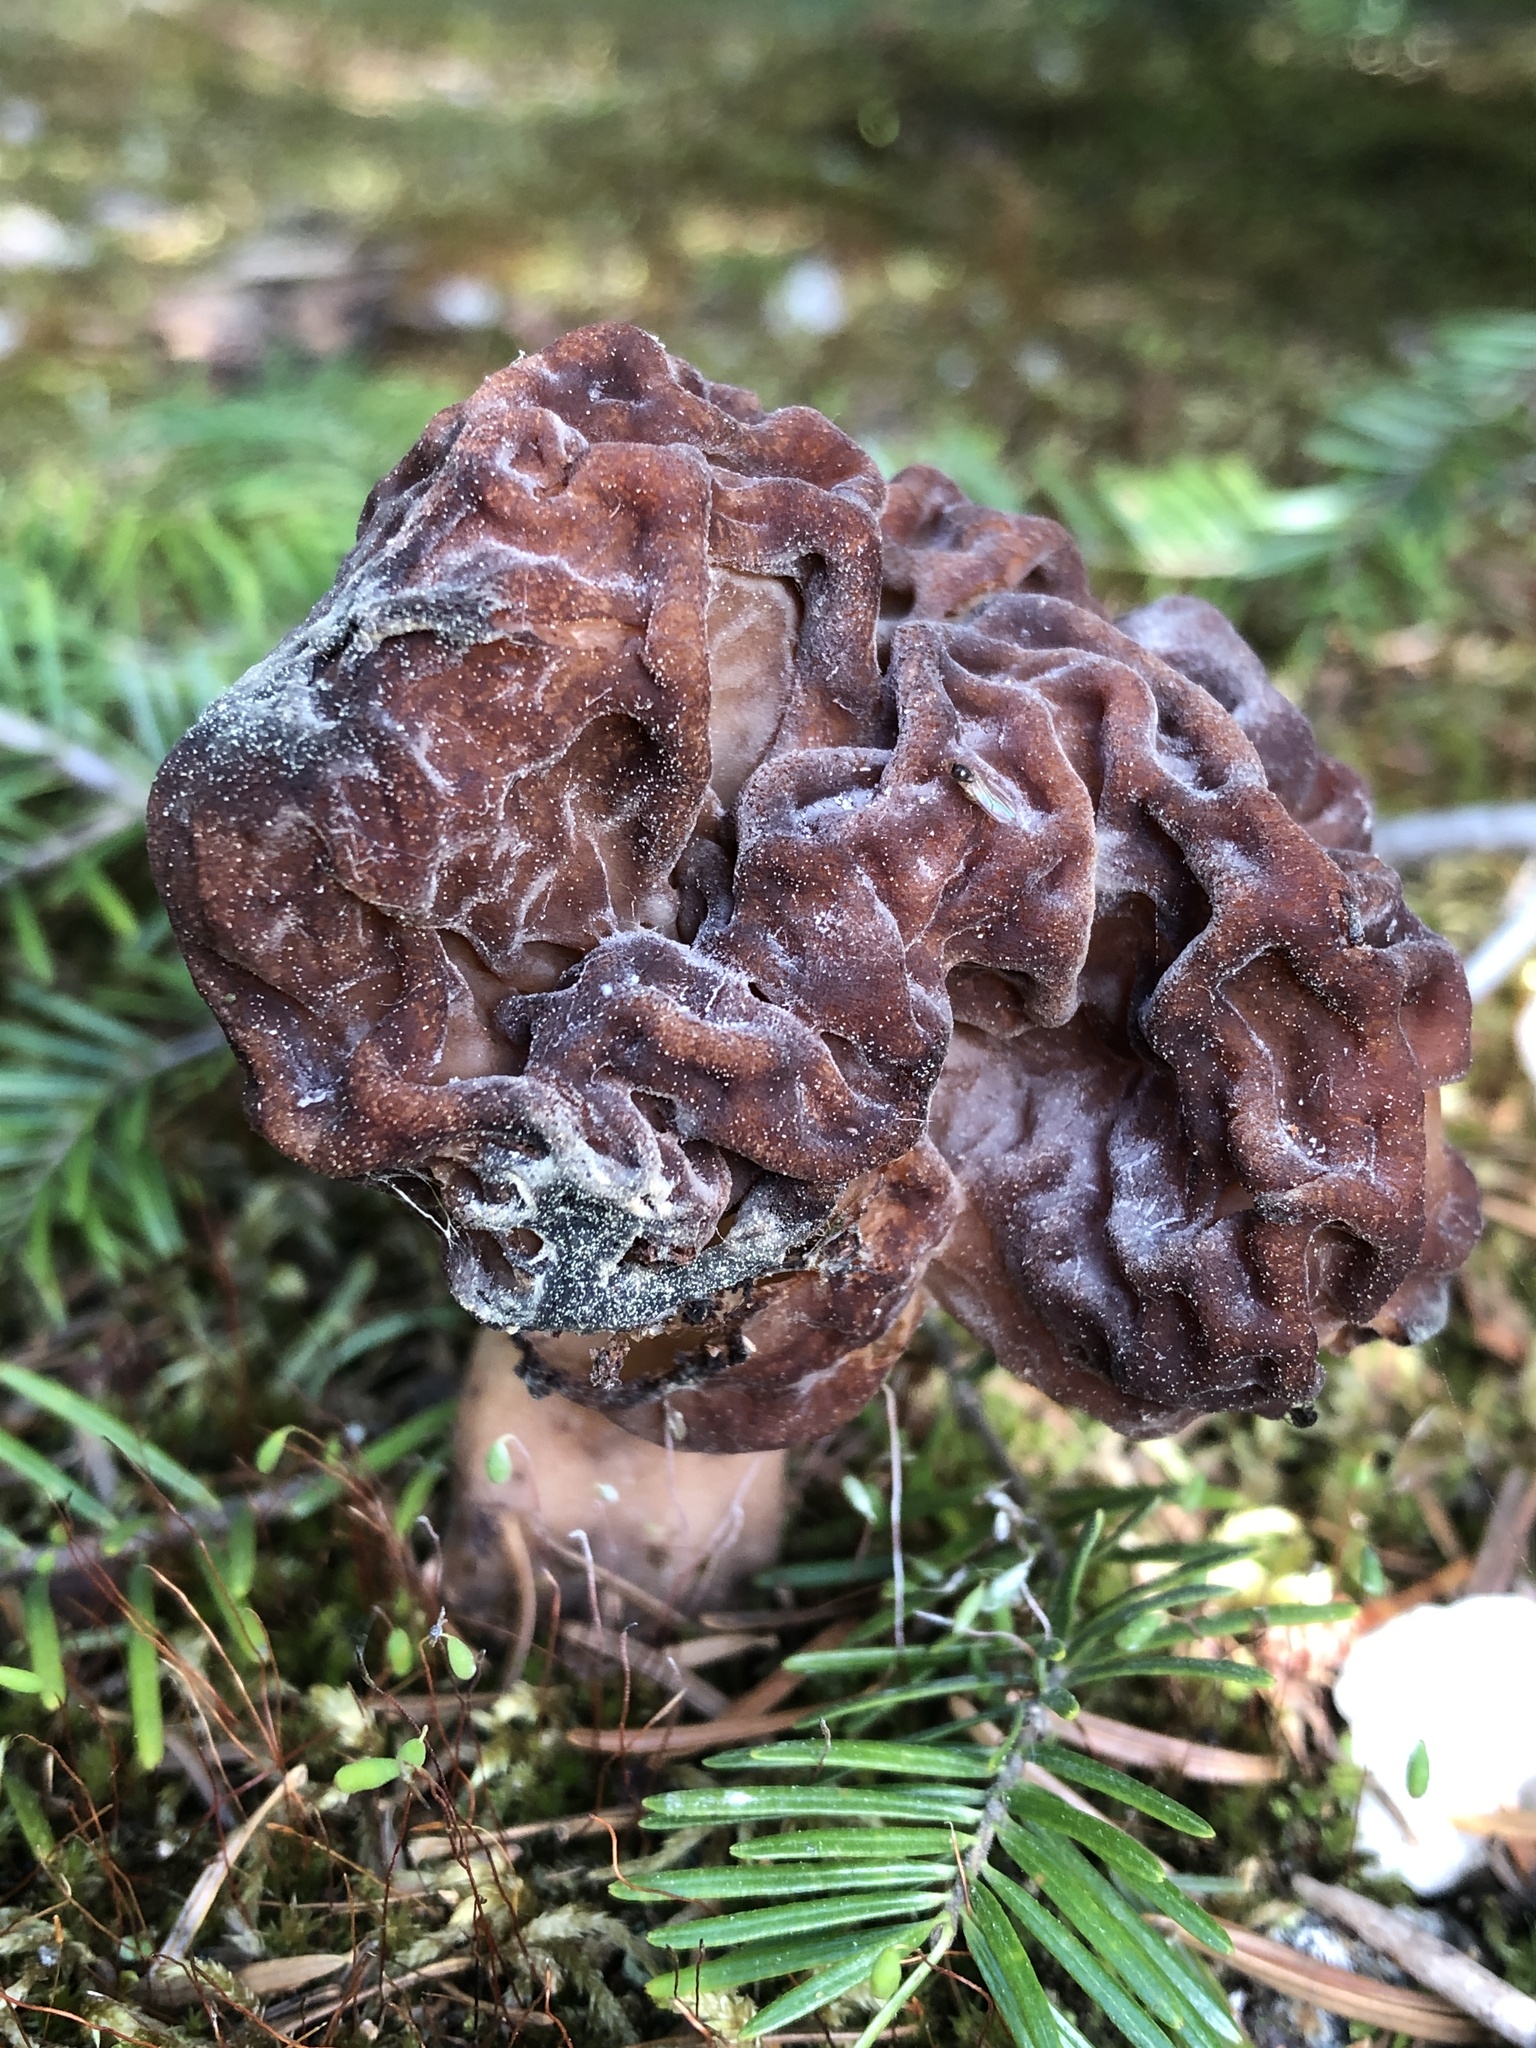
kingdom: Fungi
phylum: Ascomycota
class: Pezizomycetes
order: Pezizales
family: Discinaceae
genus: Gyromitra
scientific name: Gyromitra esculenta
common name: False morel
